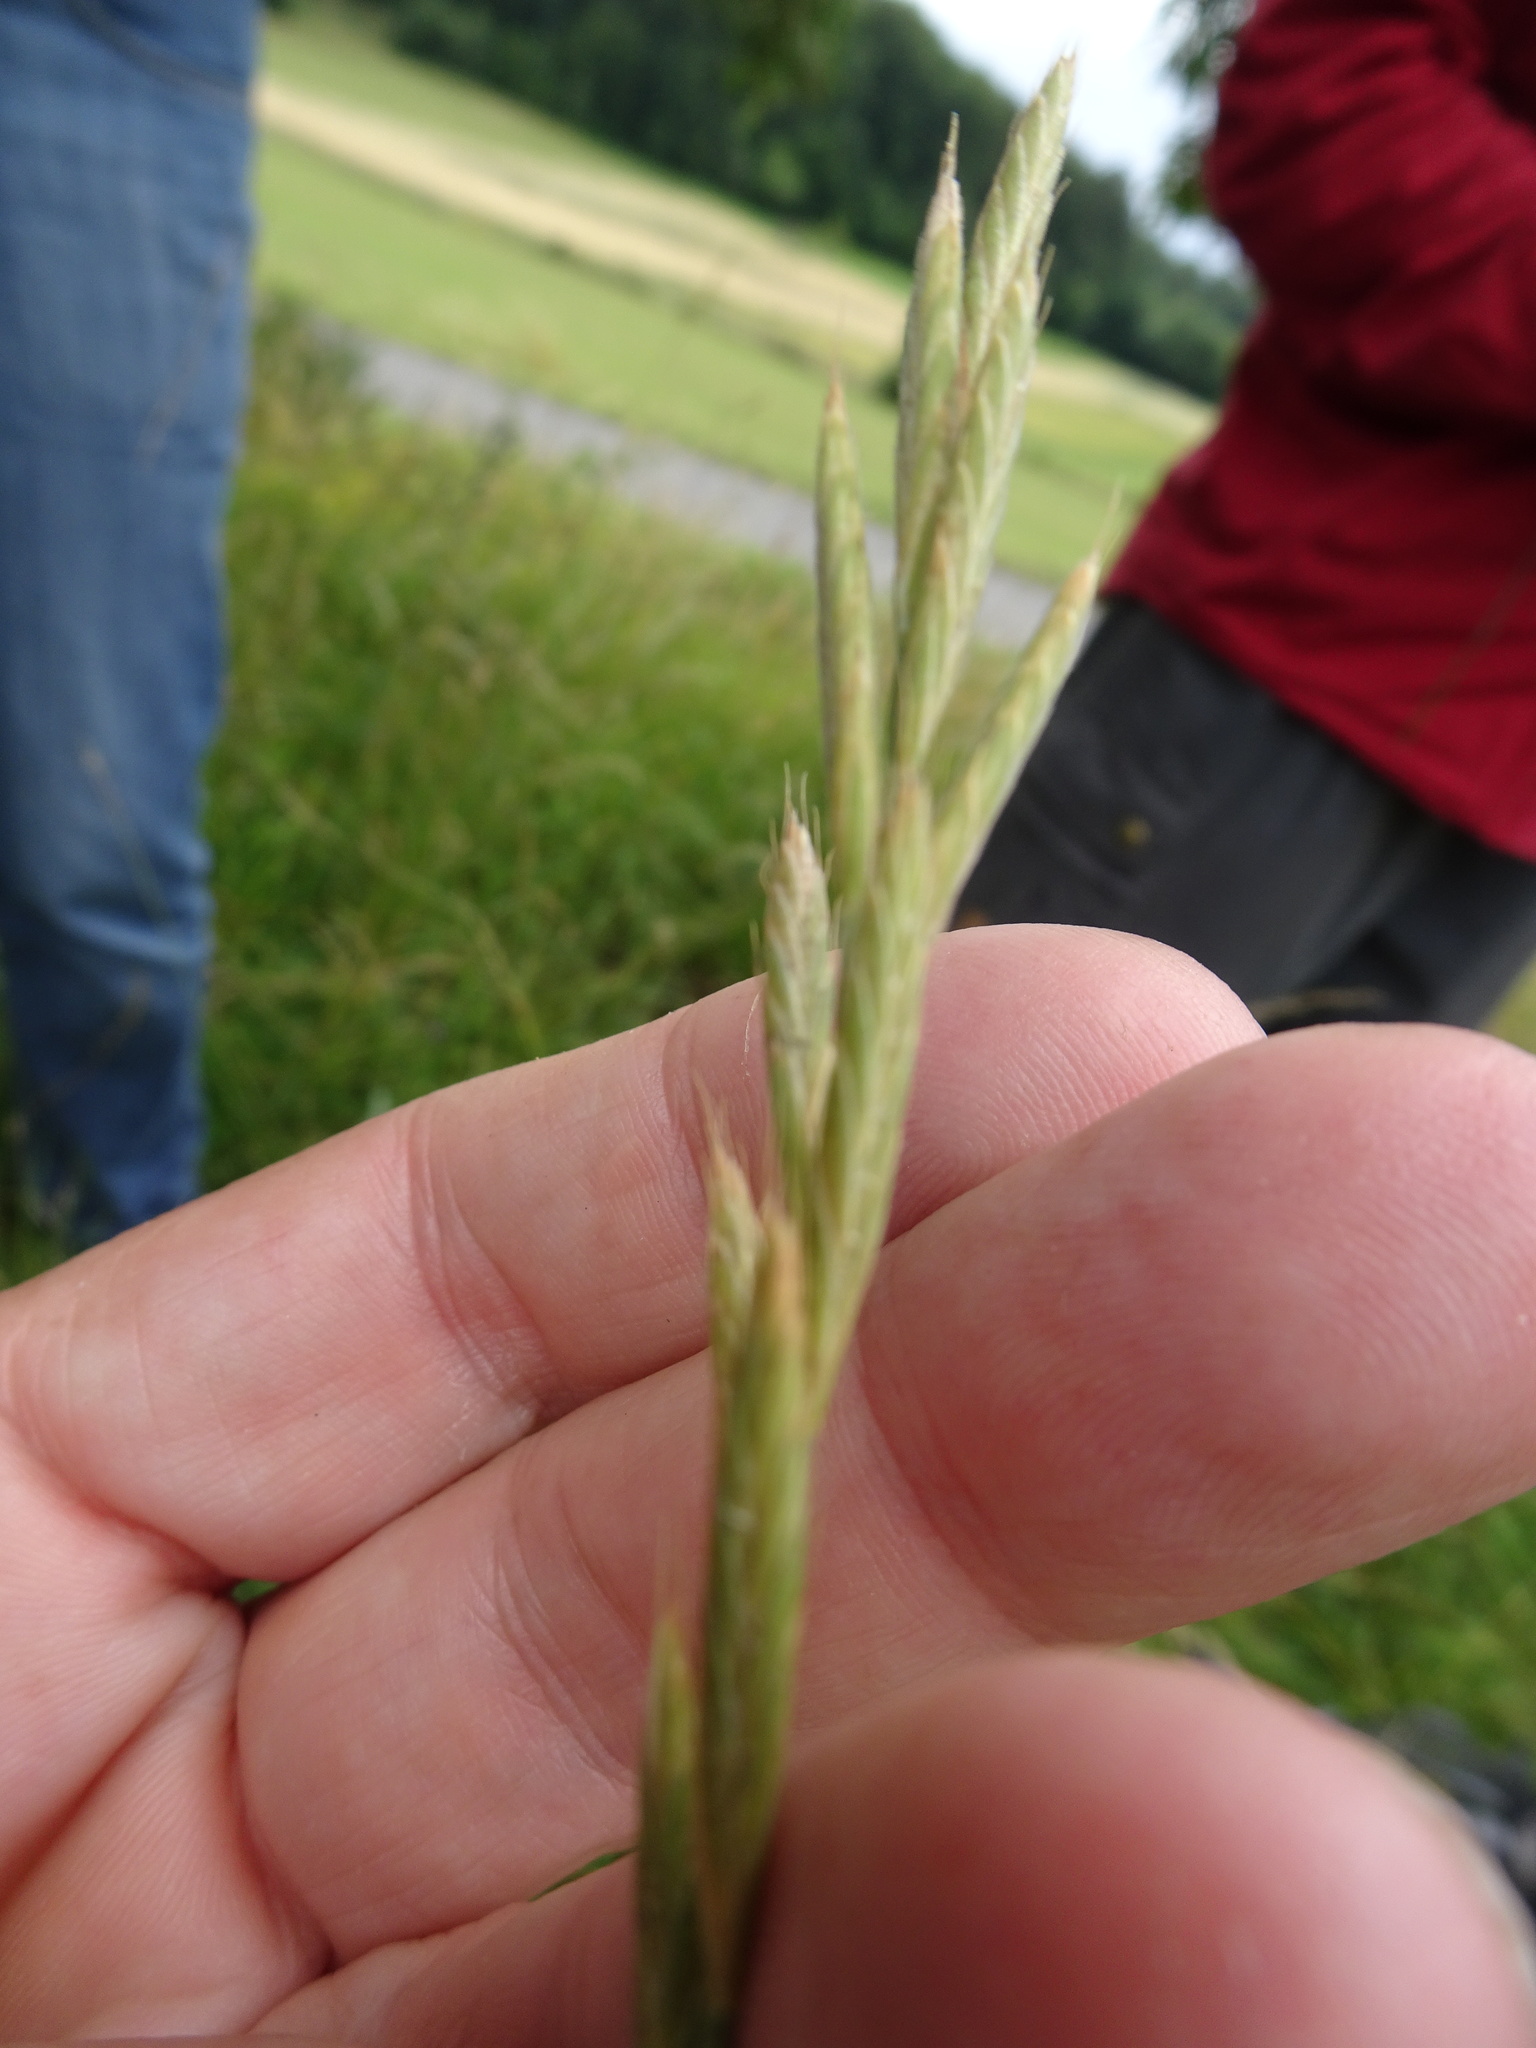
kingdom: Plantae
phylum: Tracheophyta
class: Liliopsida
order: Poales
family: Poaceae
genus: Brachypodium
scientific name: Brachypodium pinnatum
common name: Tor grass
